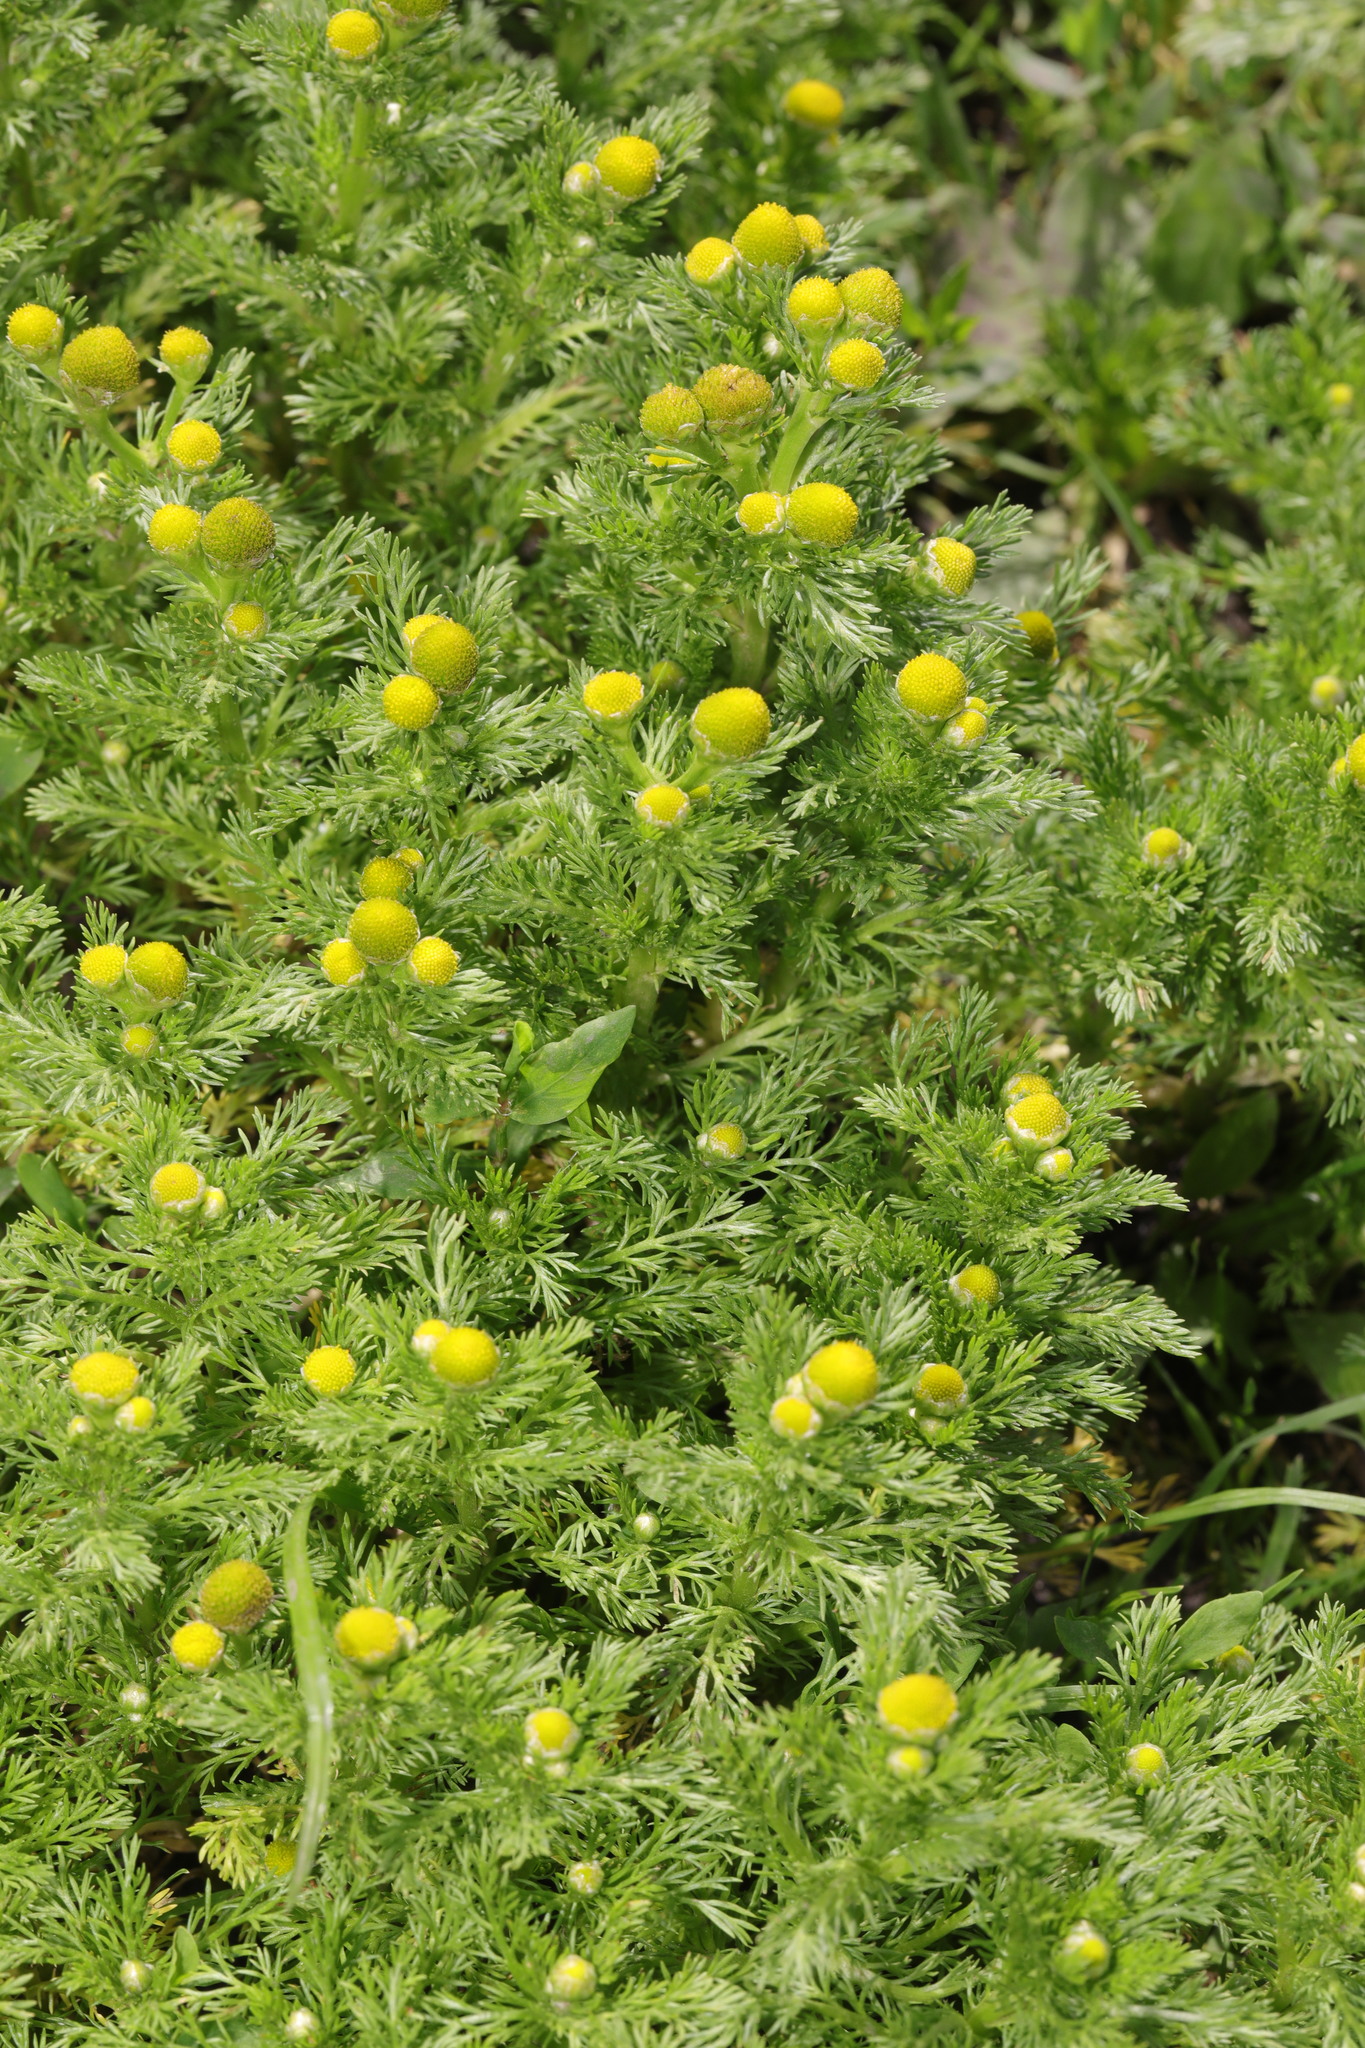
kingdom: Plantae
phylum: Tracheophyta
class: Magnoliopsida
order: Asterales
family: Asteraceae
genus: Matricaria
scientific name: Matricaria discoidea
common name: Disc mayweed
